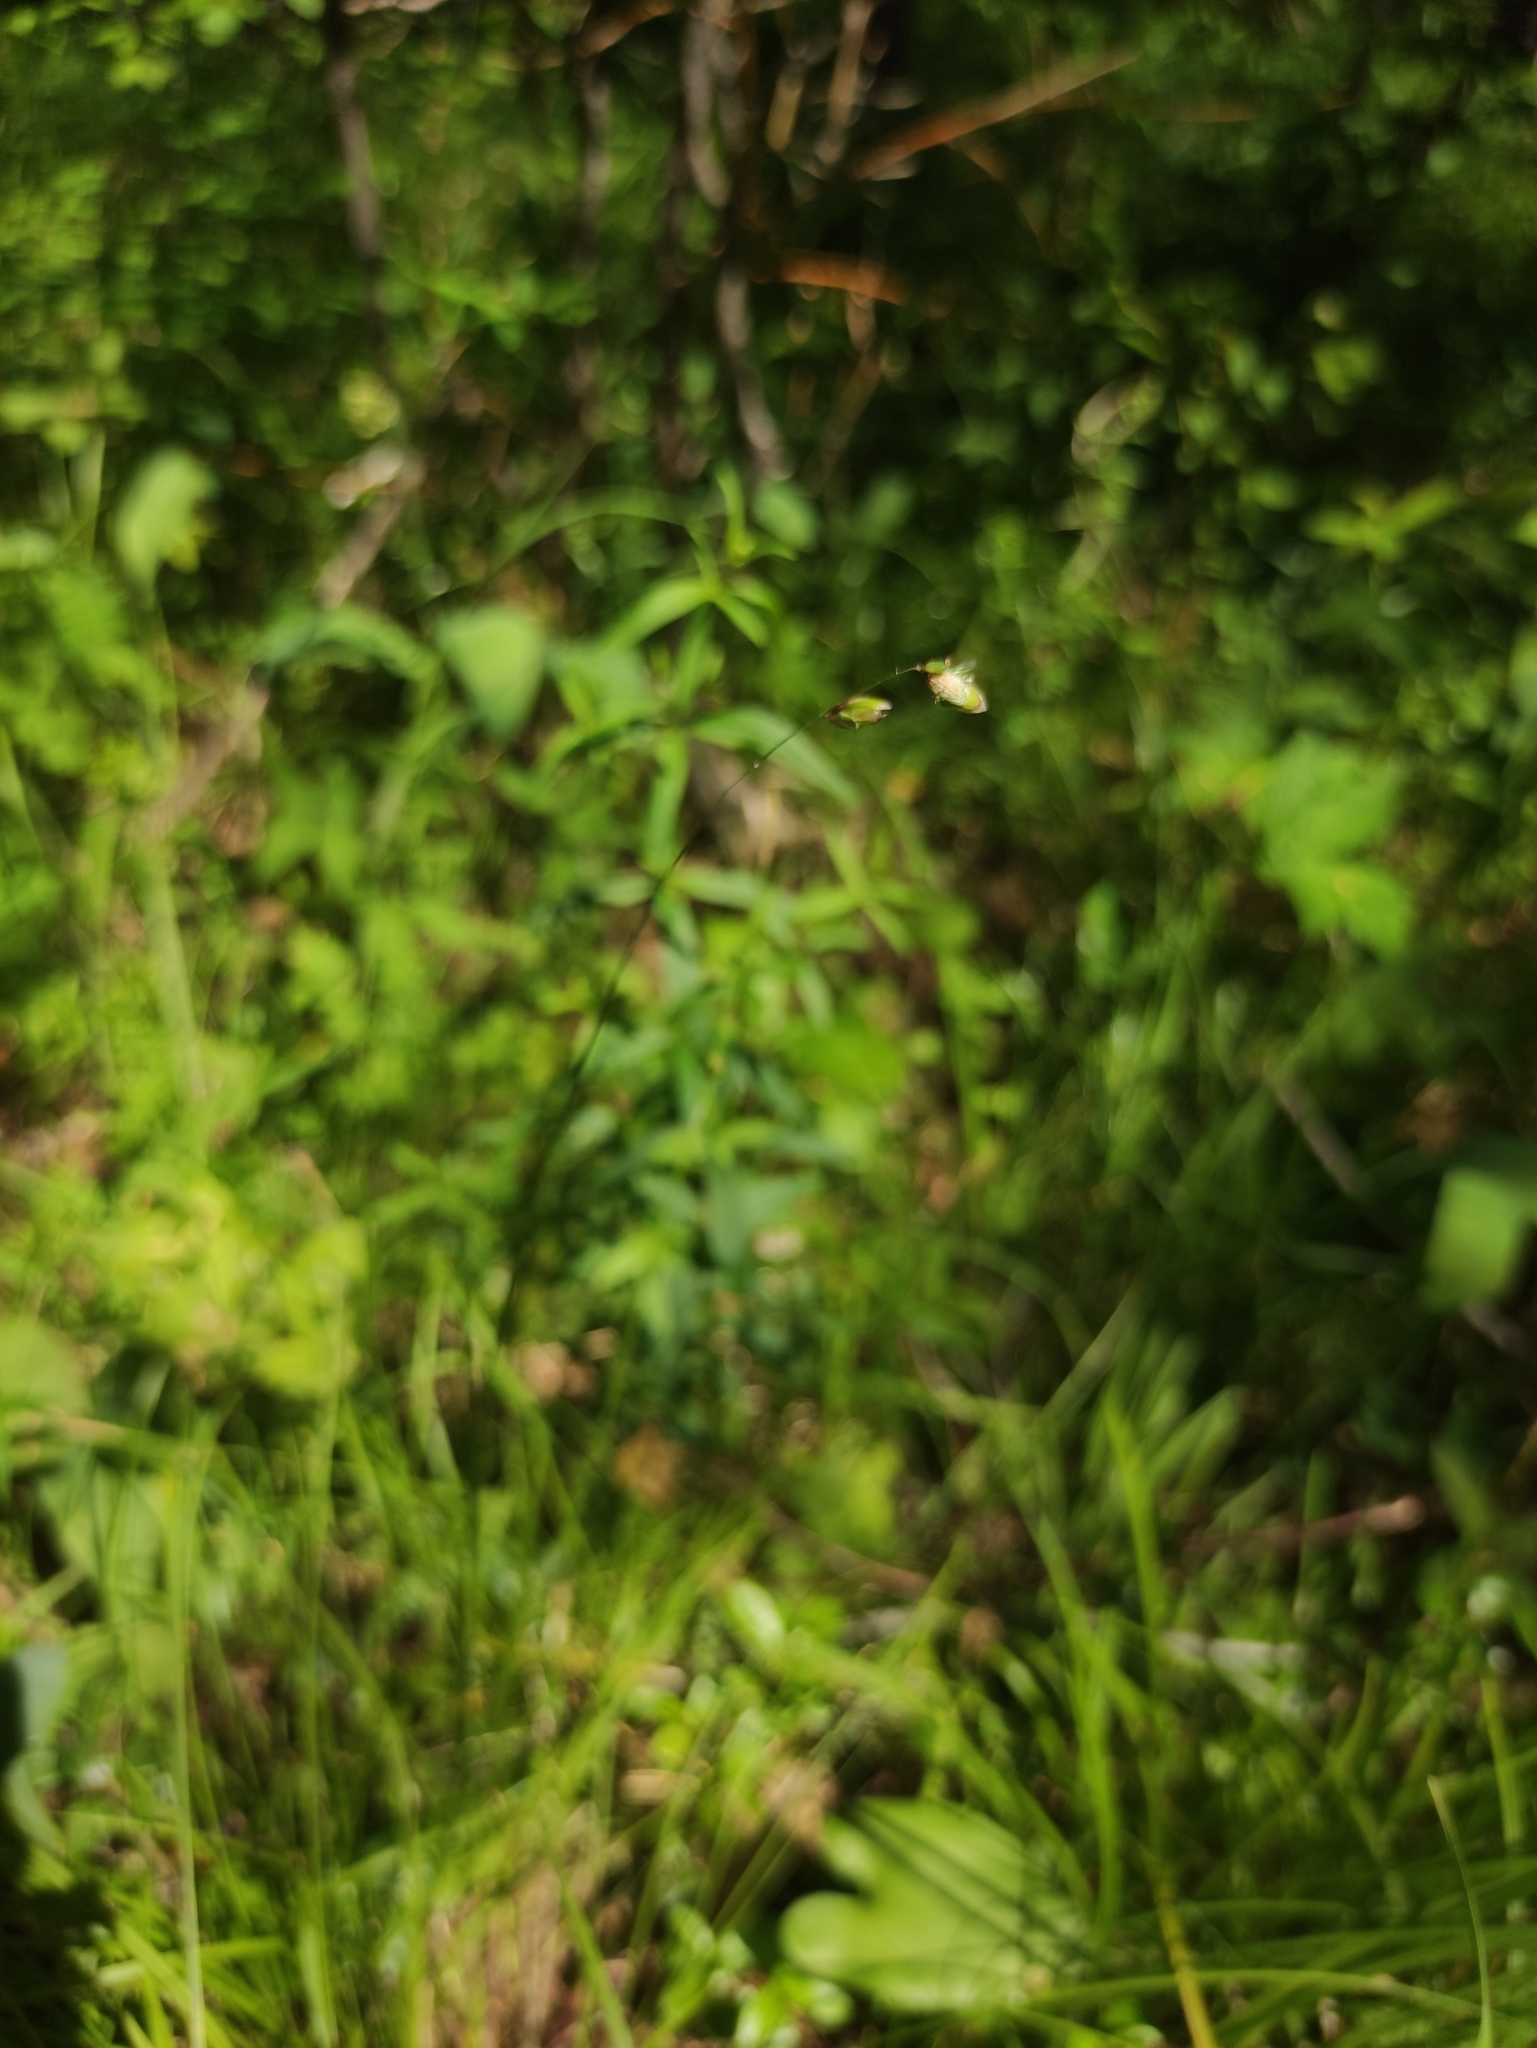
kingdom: Plantae
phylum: Tracheophyta
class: Liliopsida
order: Poales
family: Poaceae
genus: Melica
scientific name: Melica nutans
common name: Mountain melick
